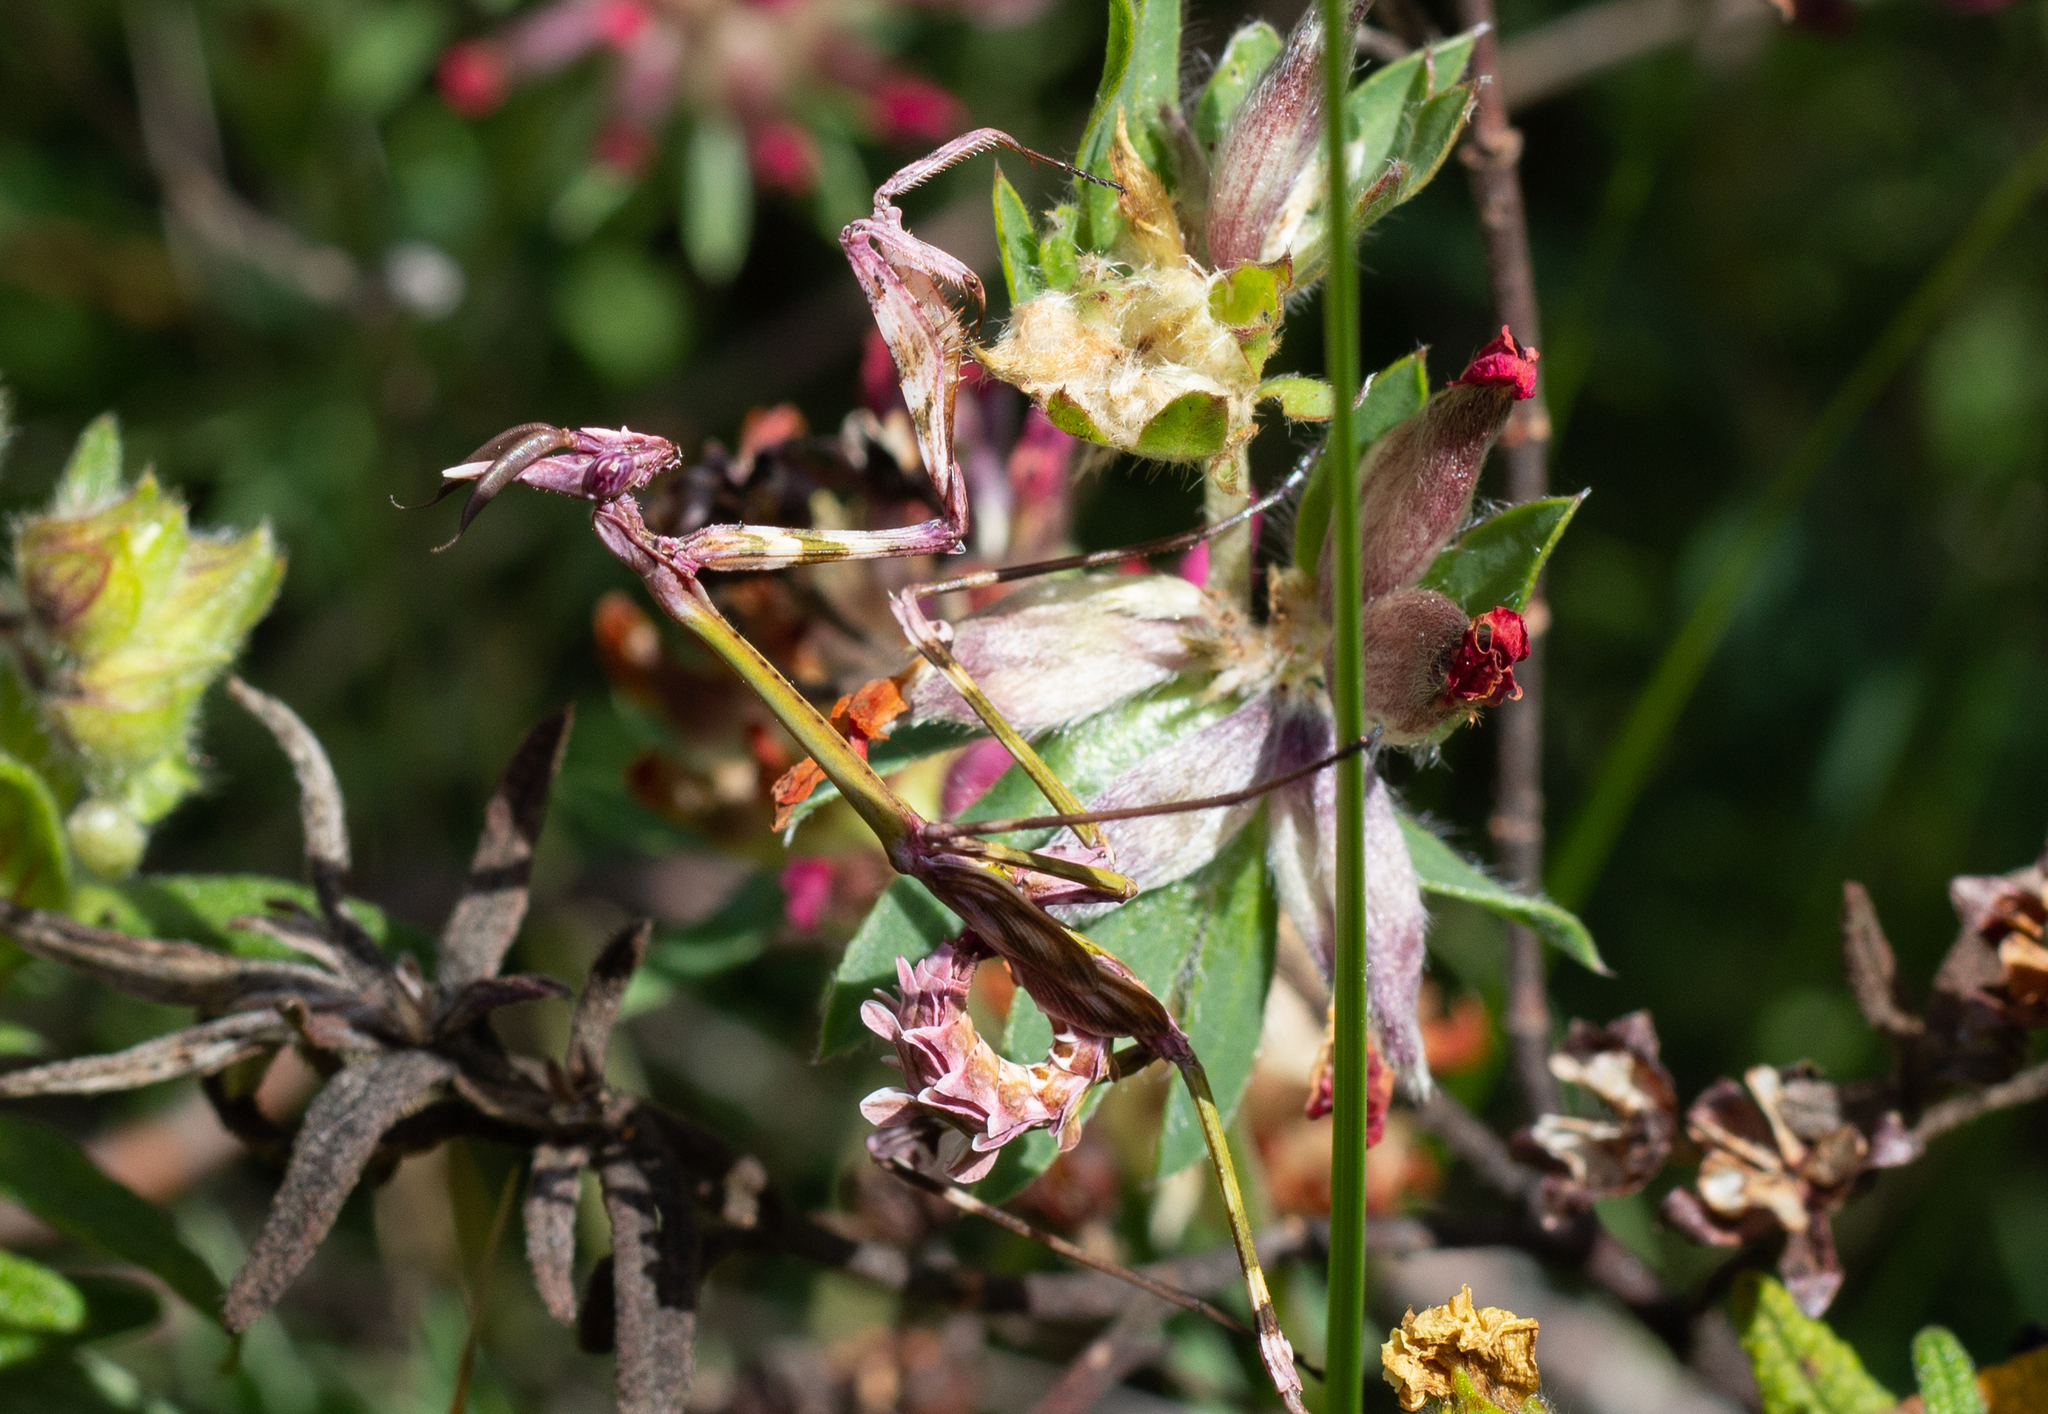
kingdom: Animalia
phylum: Arthropoda
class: Insecta
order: Mantodea
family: Empusidae
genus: Empusa
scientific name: Empusa pennata
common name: Conehead mantis
